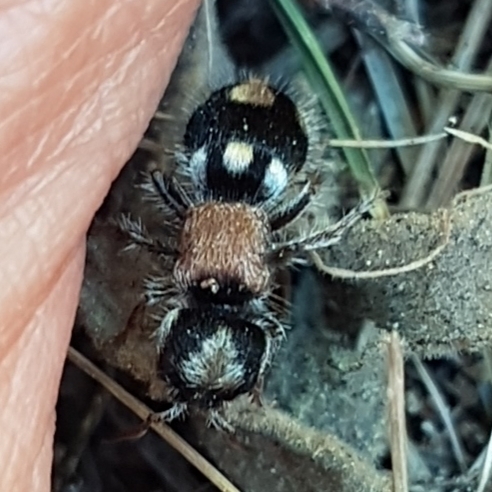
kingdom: Animalia
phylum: Arthropoda
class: Insecta
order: Hymenoptera
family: Mutillidae
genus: Ronisia
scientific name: Ronisia barbarula
